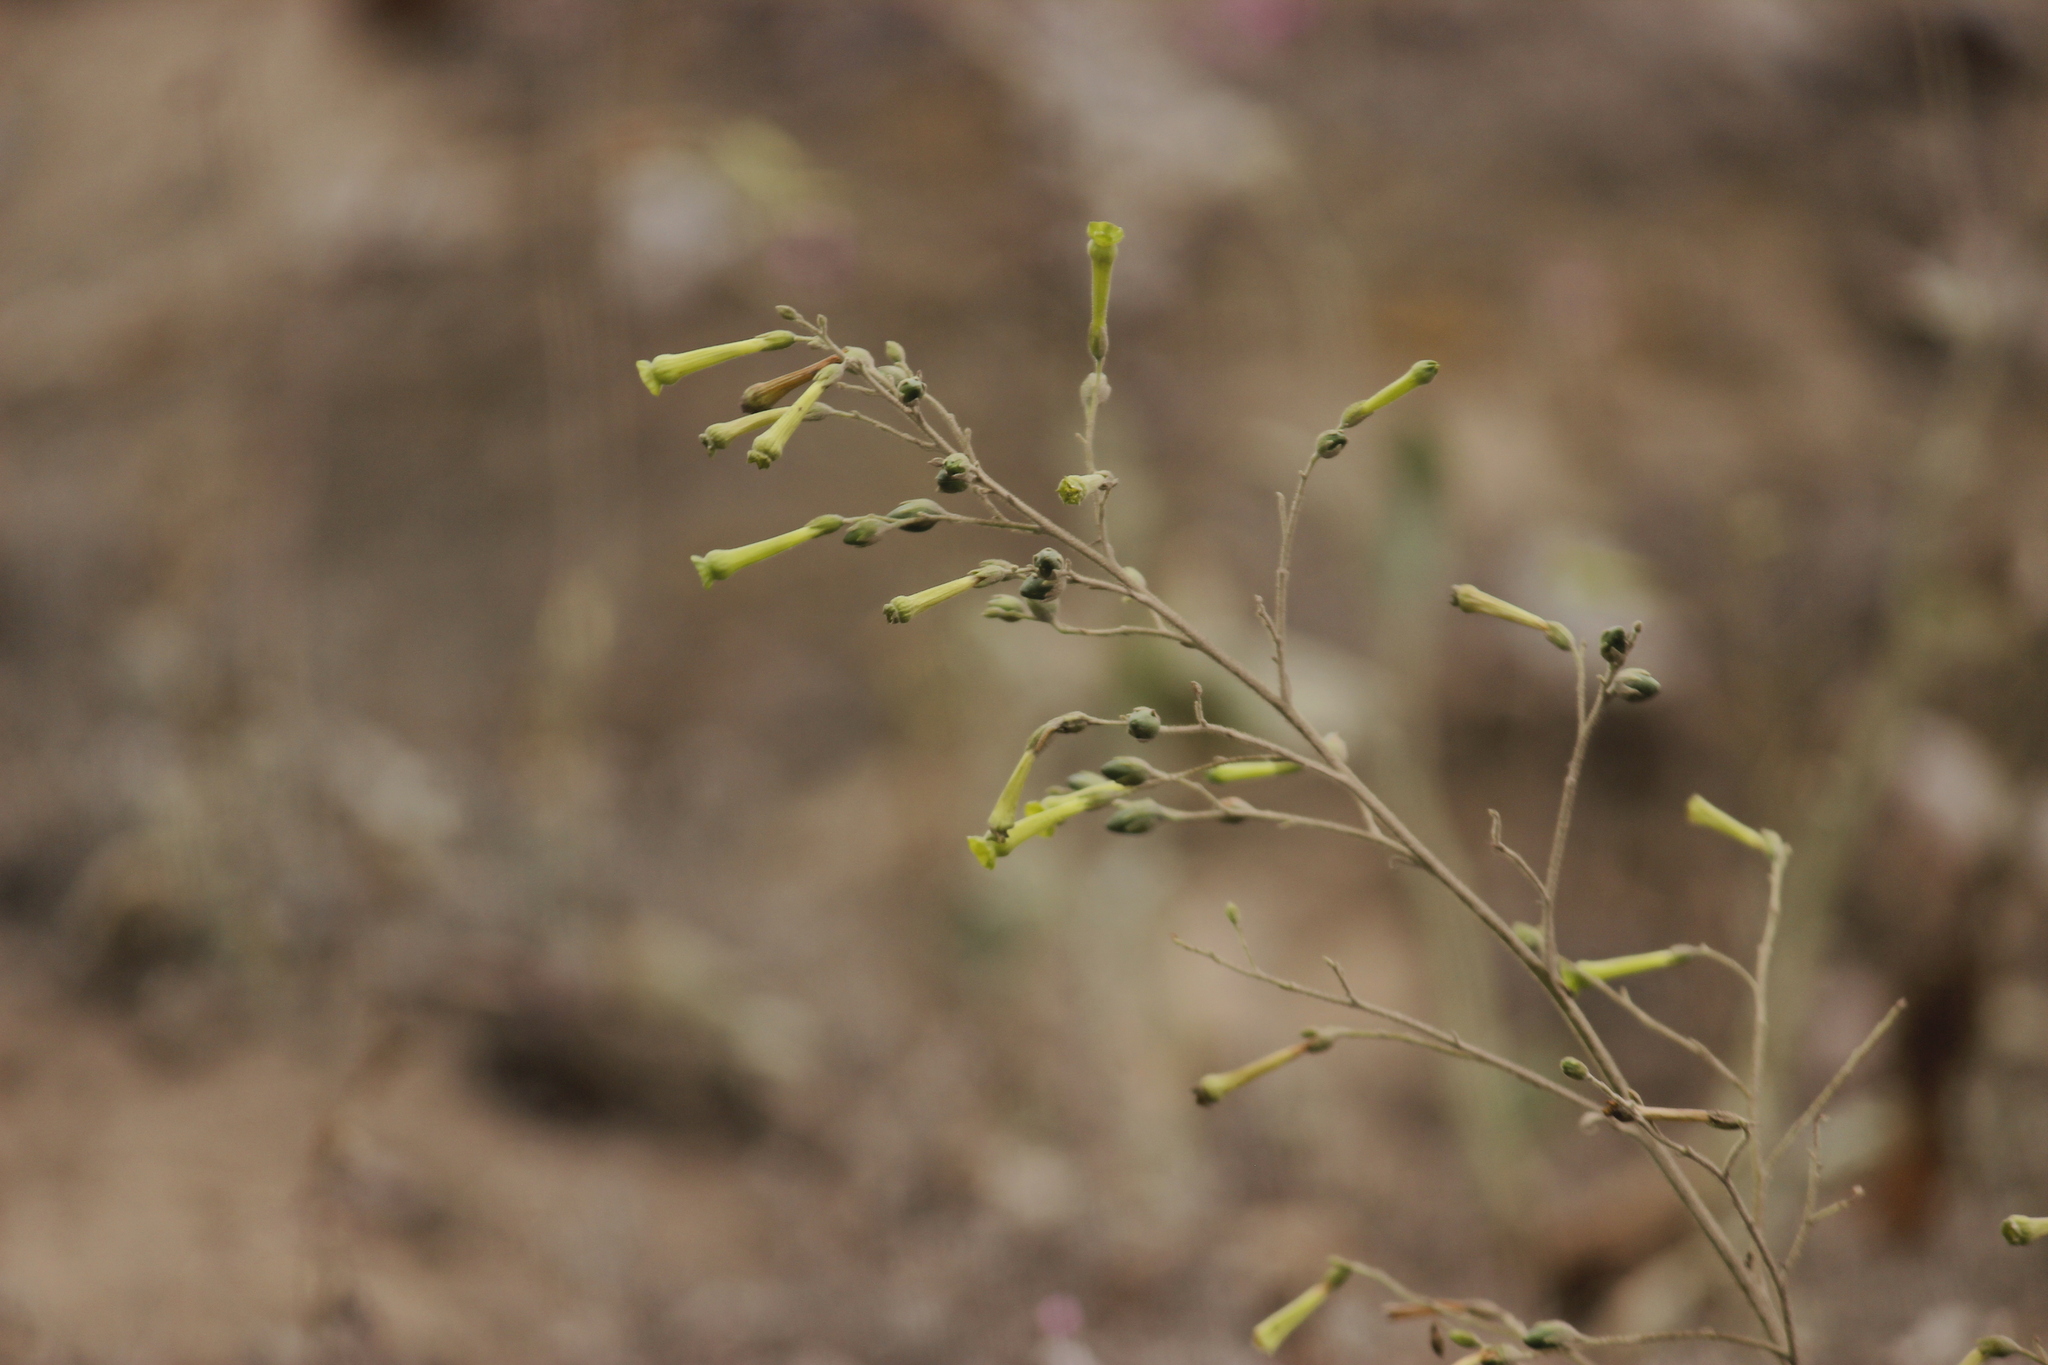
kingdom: Plantae
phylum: Tracheophyta
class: Magnoliopsida
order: Solanales
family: Solanaceae
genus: Nicotiana
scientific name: Nicotiana paniculata
